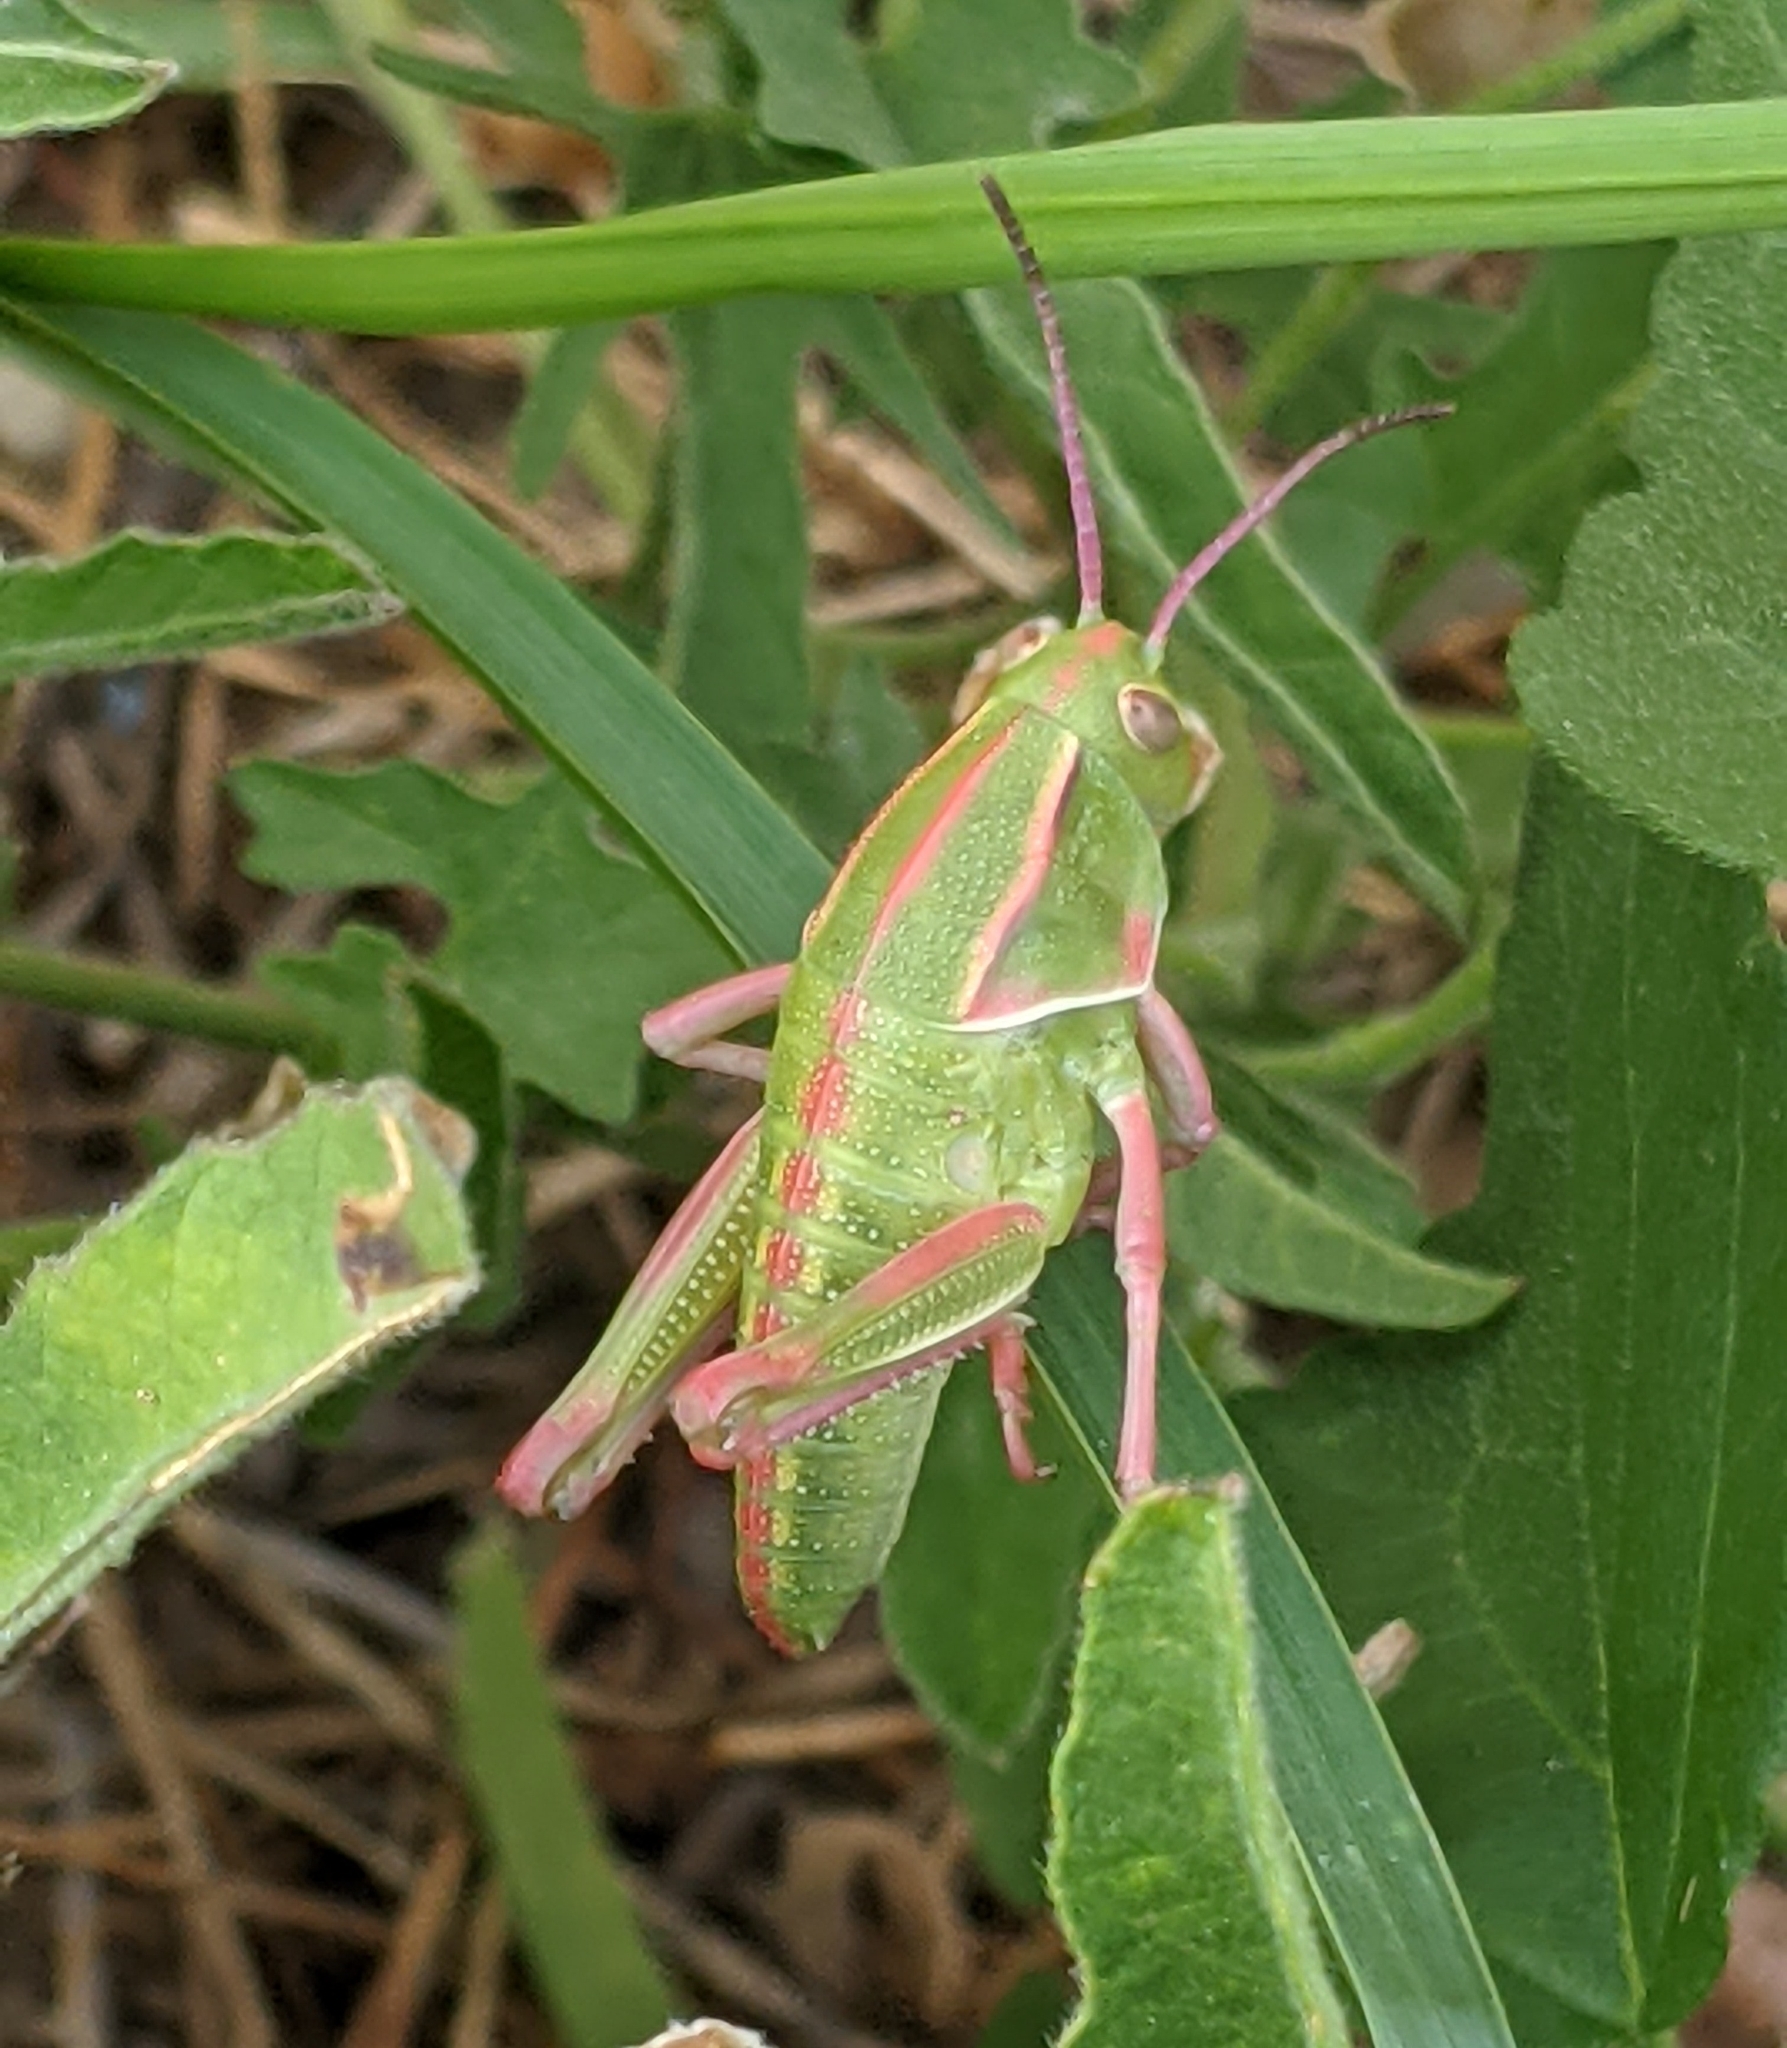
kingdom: Animalia
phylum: Arthropoda
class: Insecta
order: Orthoptera
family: Romaleidae
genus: Brachystola
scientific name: Brachystola magna
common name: Plains lubber grasshopper
